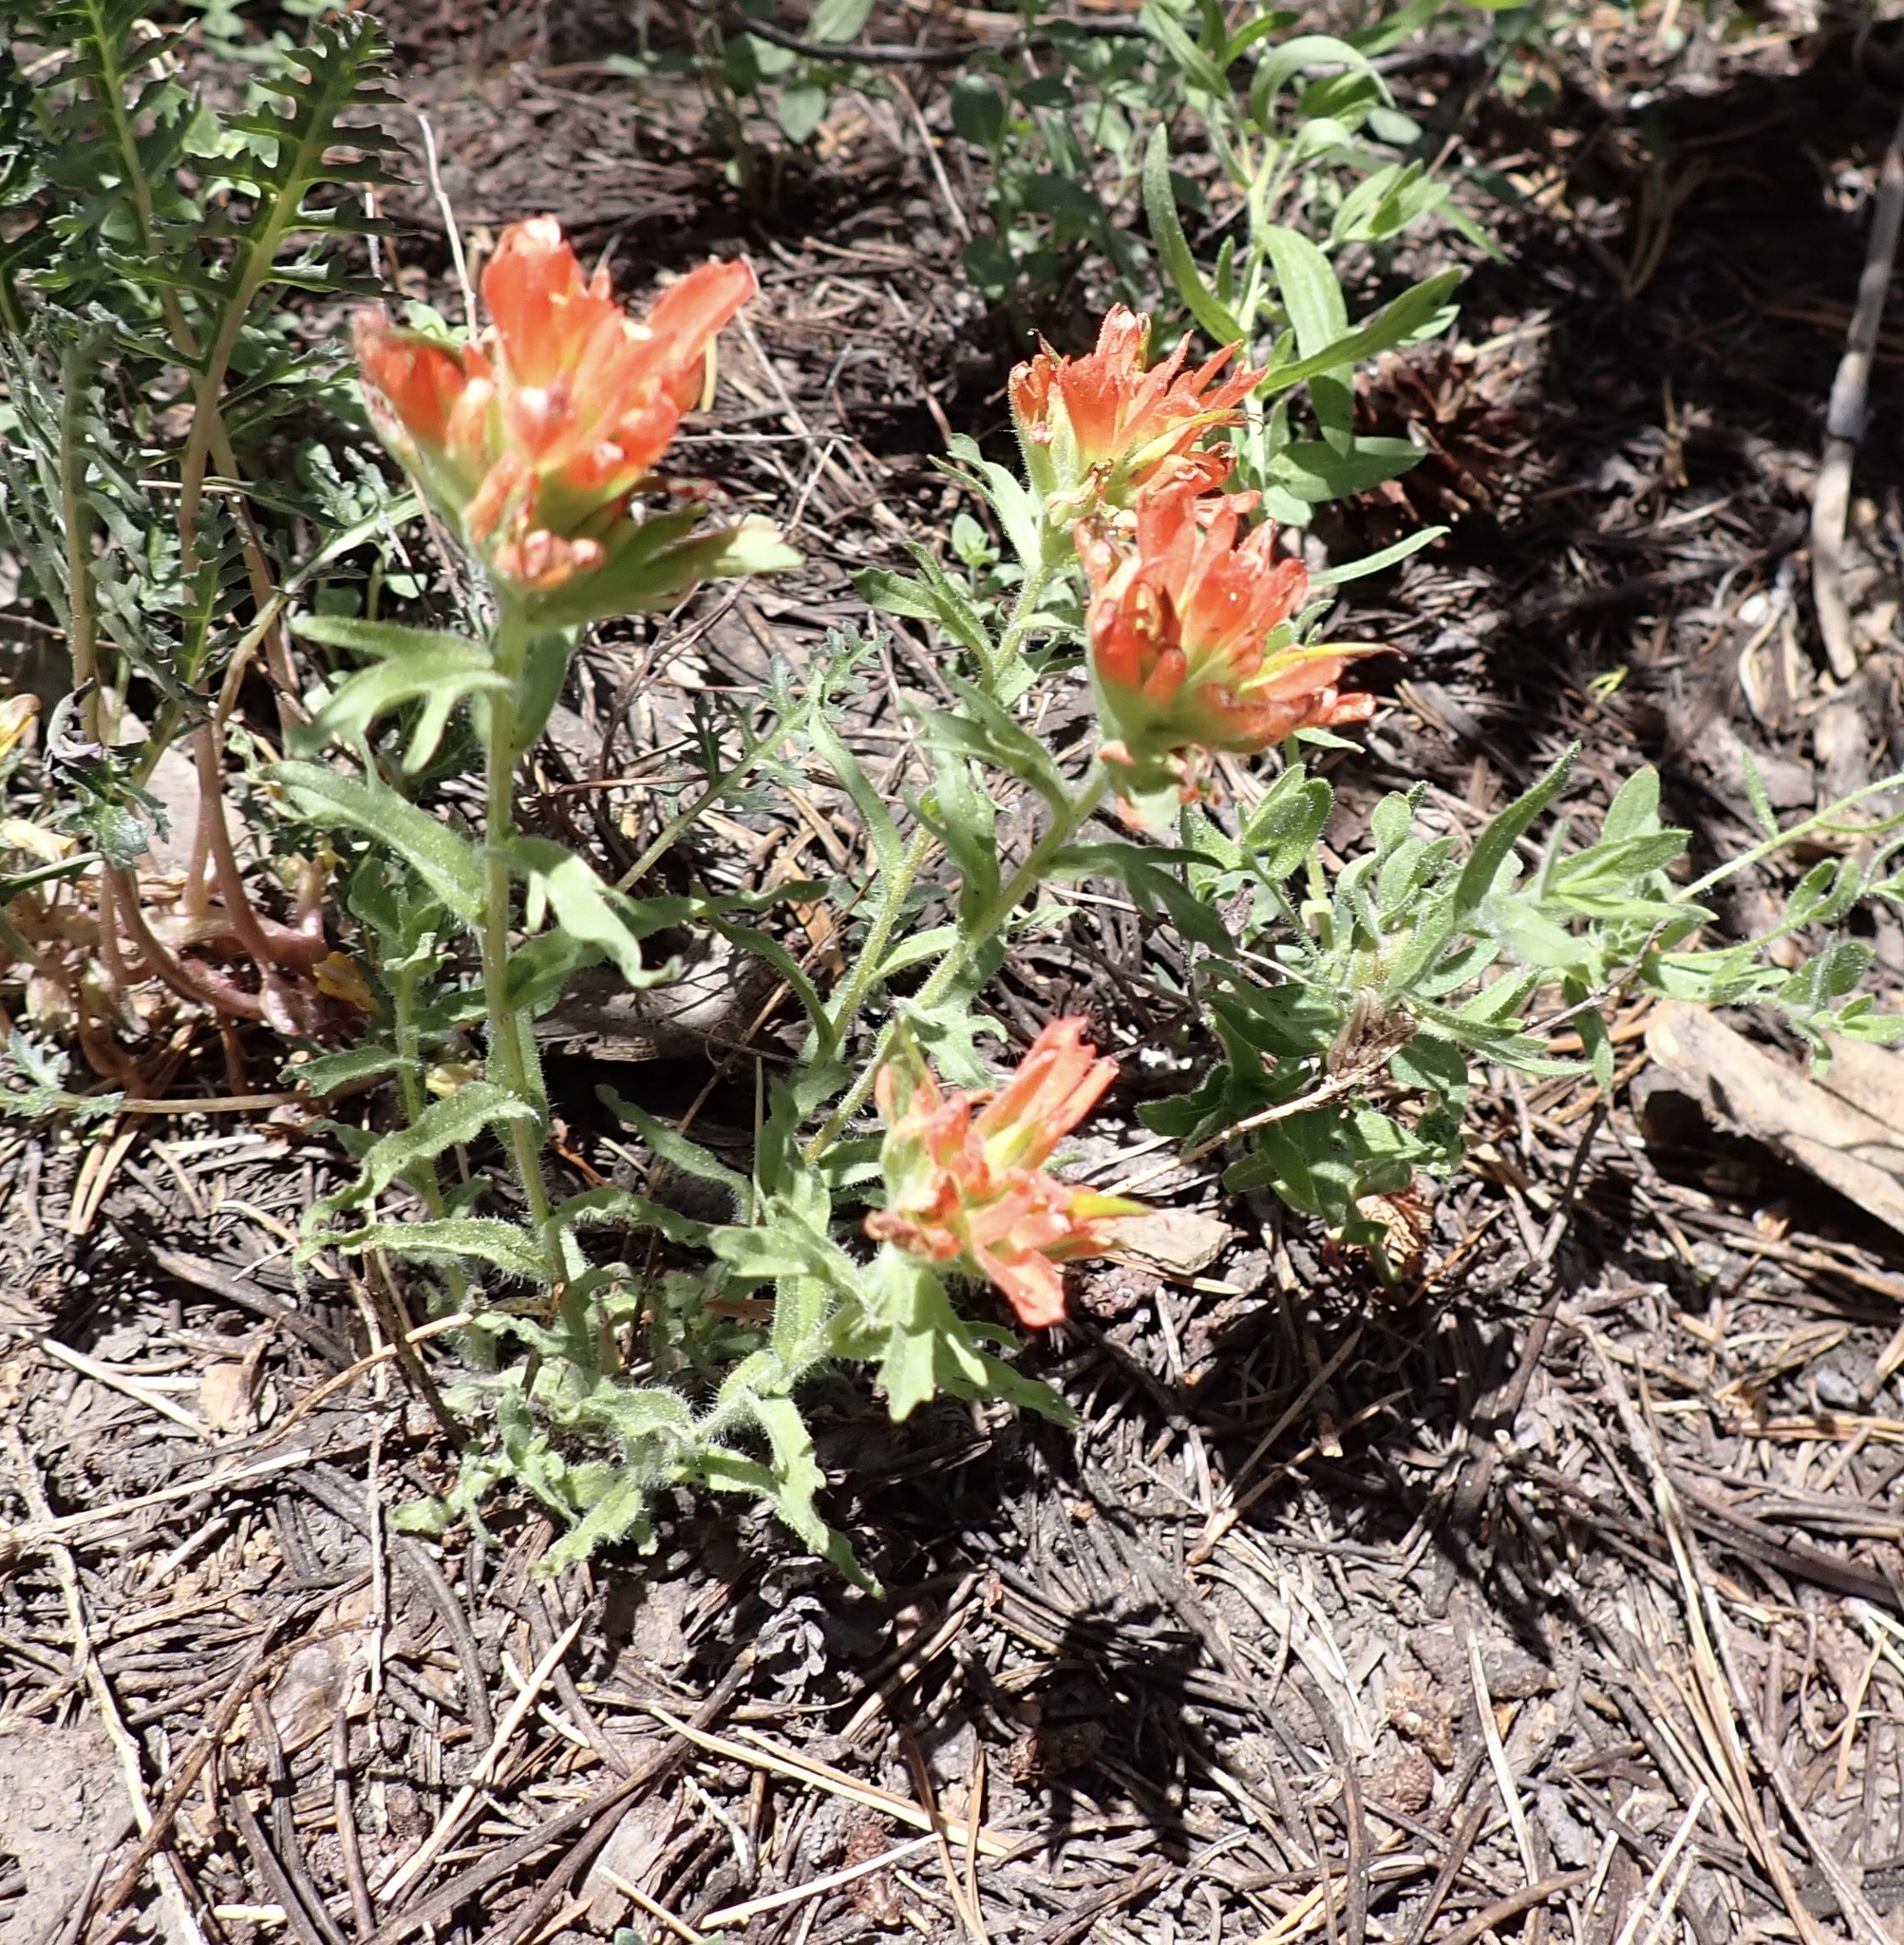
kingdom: Plantae
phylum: Tracheophyta
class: Magnoliopsida
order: Lamiales
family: Orobanchaceae
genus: Castilleja
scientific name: Castilleja applegatei
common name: Wavy-leaf paintbrush
